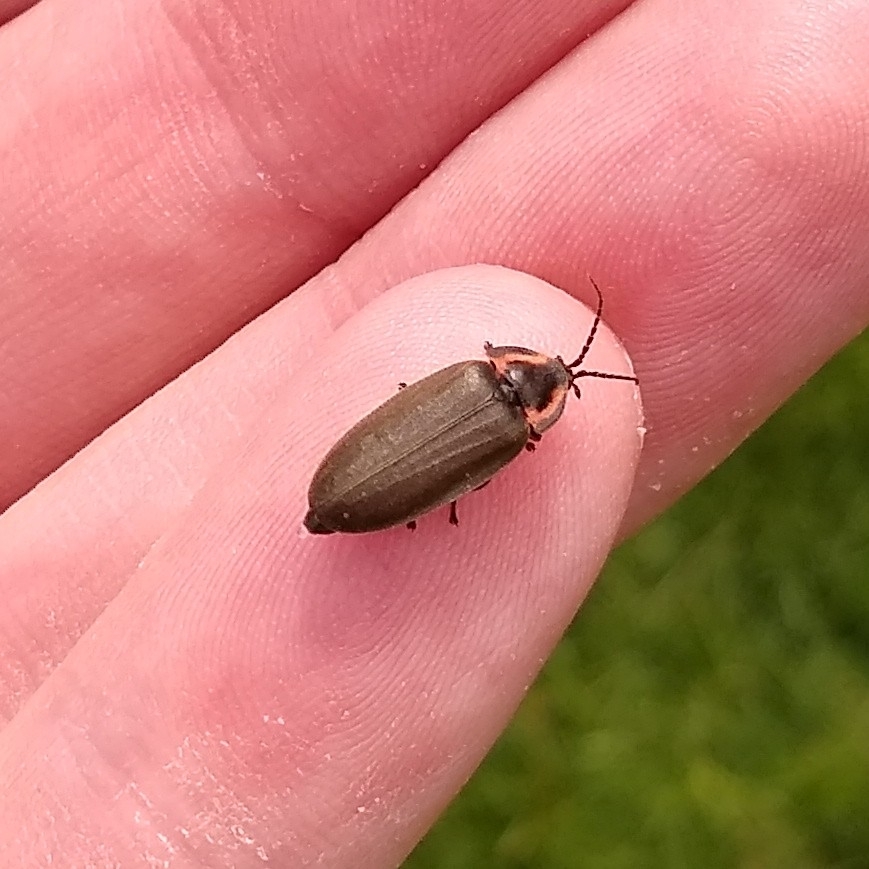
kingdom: Animalia
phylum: Arthropoda
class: Insecta
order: Coleoptera
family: Lampyridae
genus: Photinus
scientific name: Photinus corrusca
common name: Winter firefly
